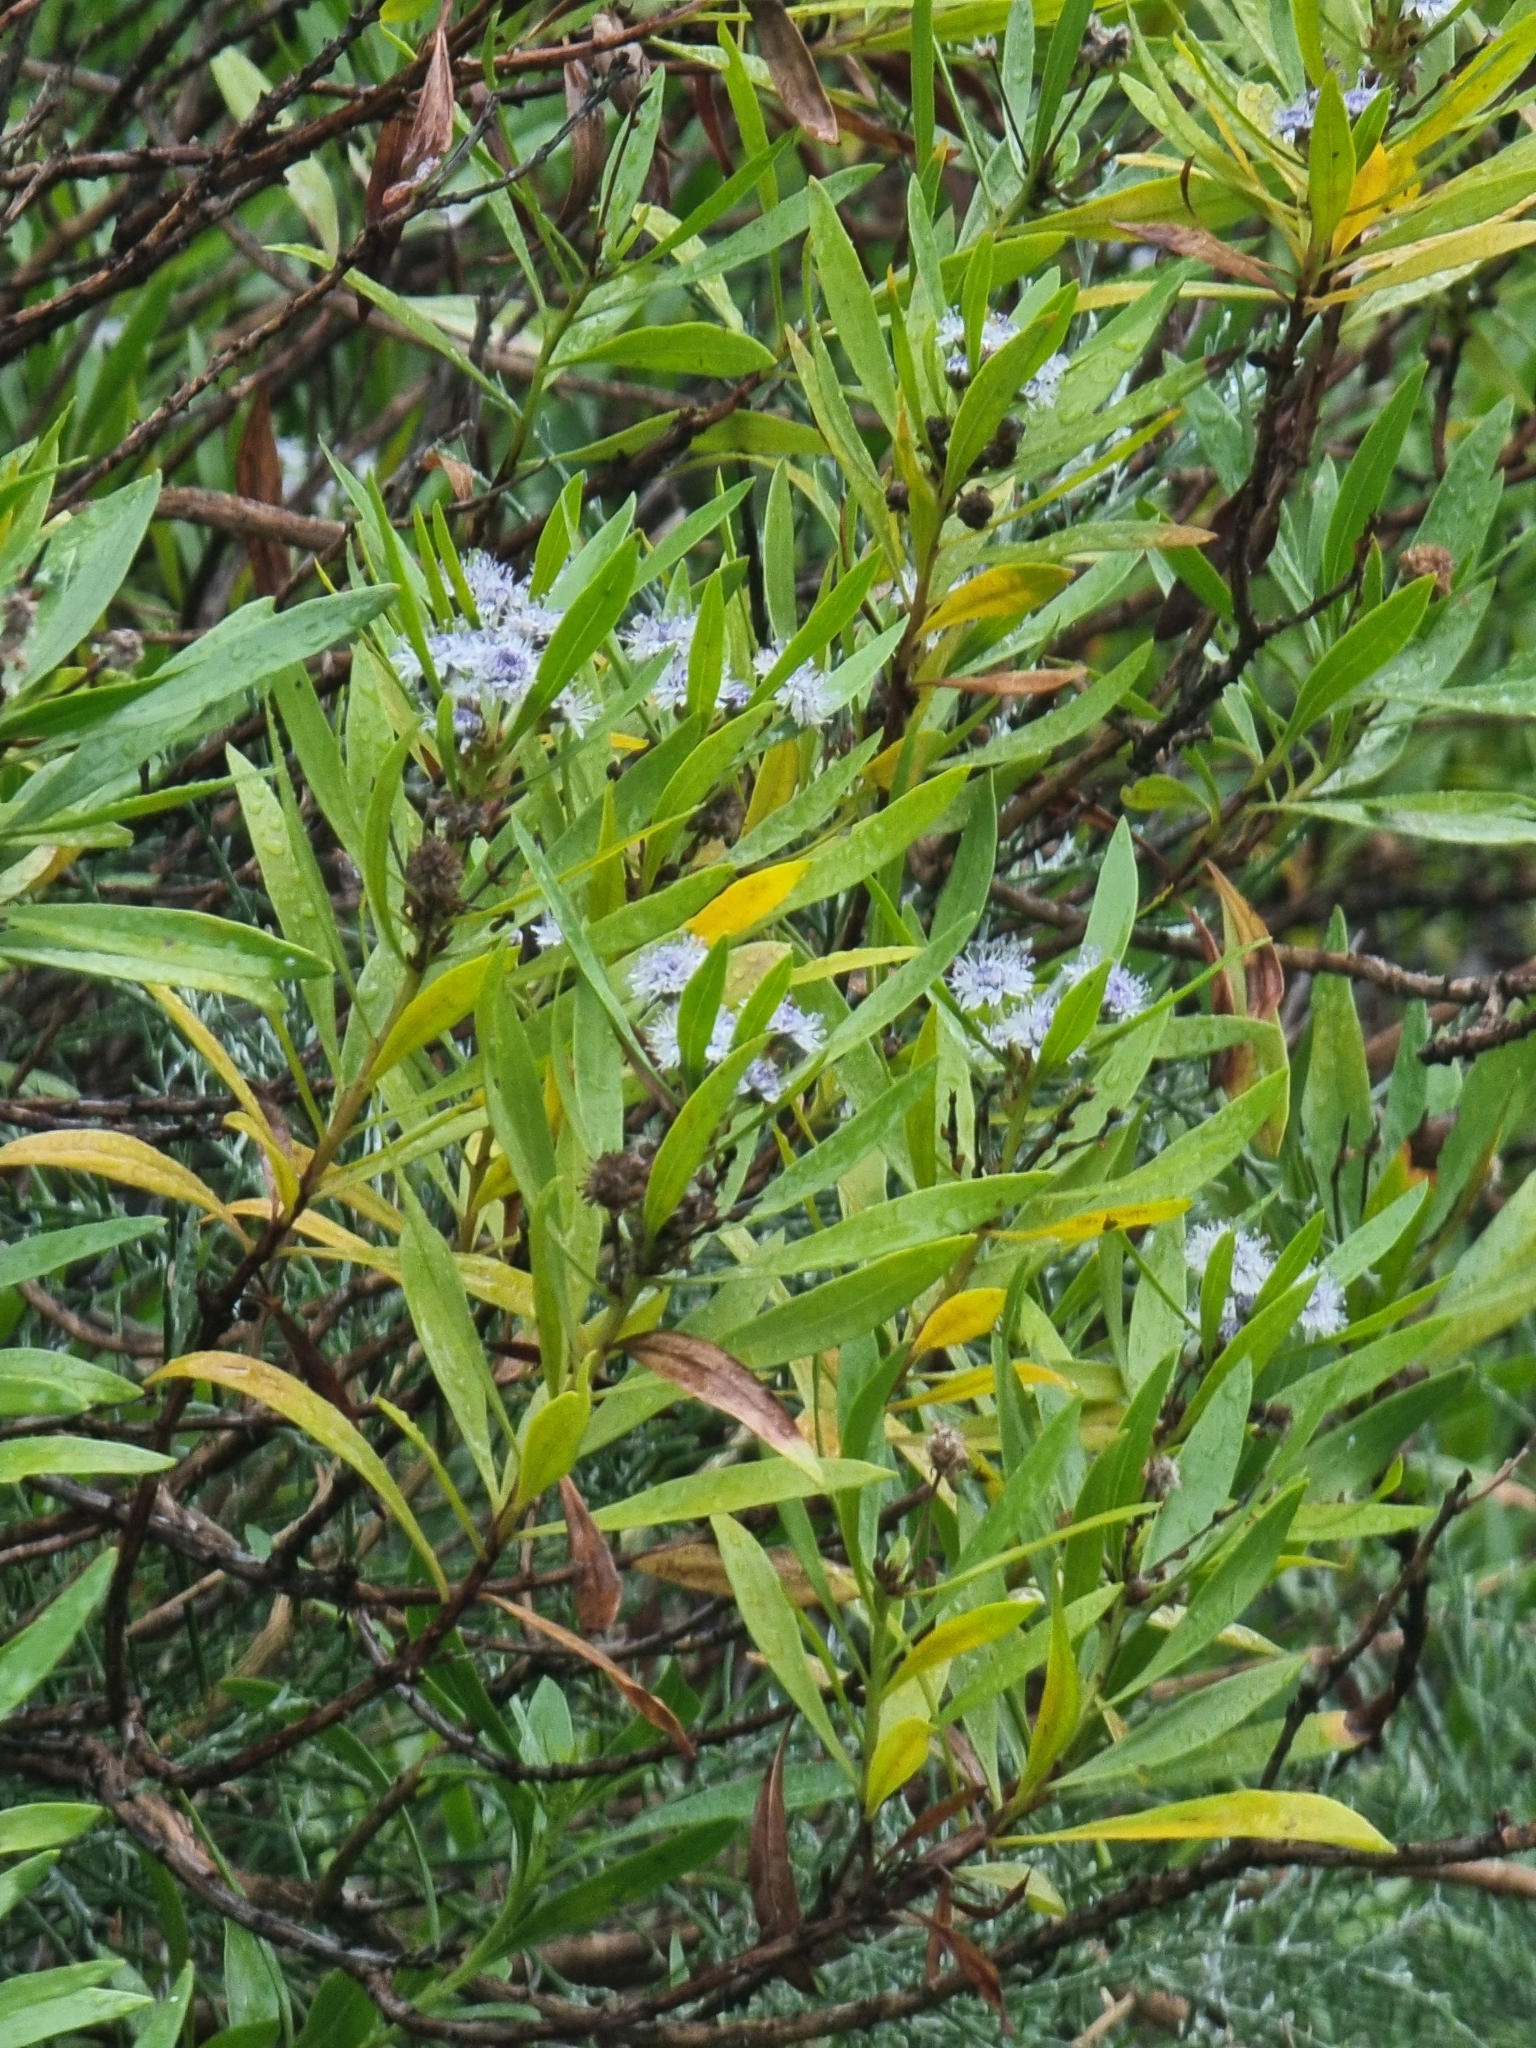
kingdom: Plantae
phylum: Tracheophyta
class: Magnoliopsida
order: Lamiales
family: Plantaginaceae
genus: Globularia
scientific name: Globularia salicina
